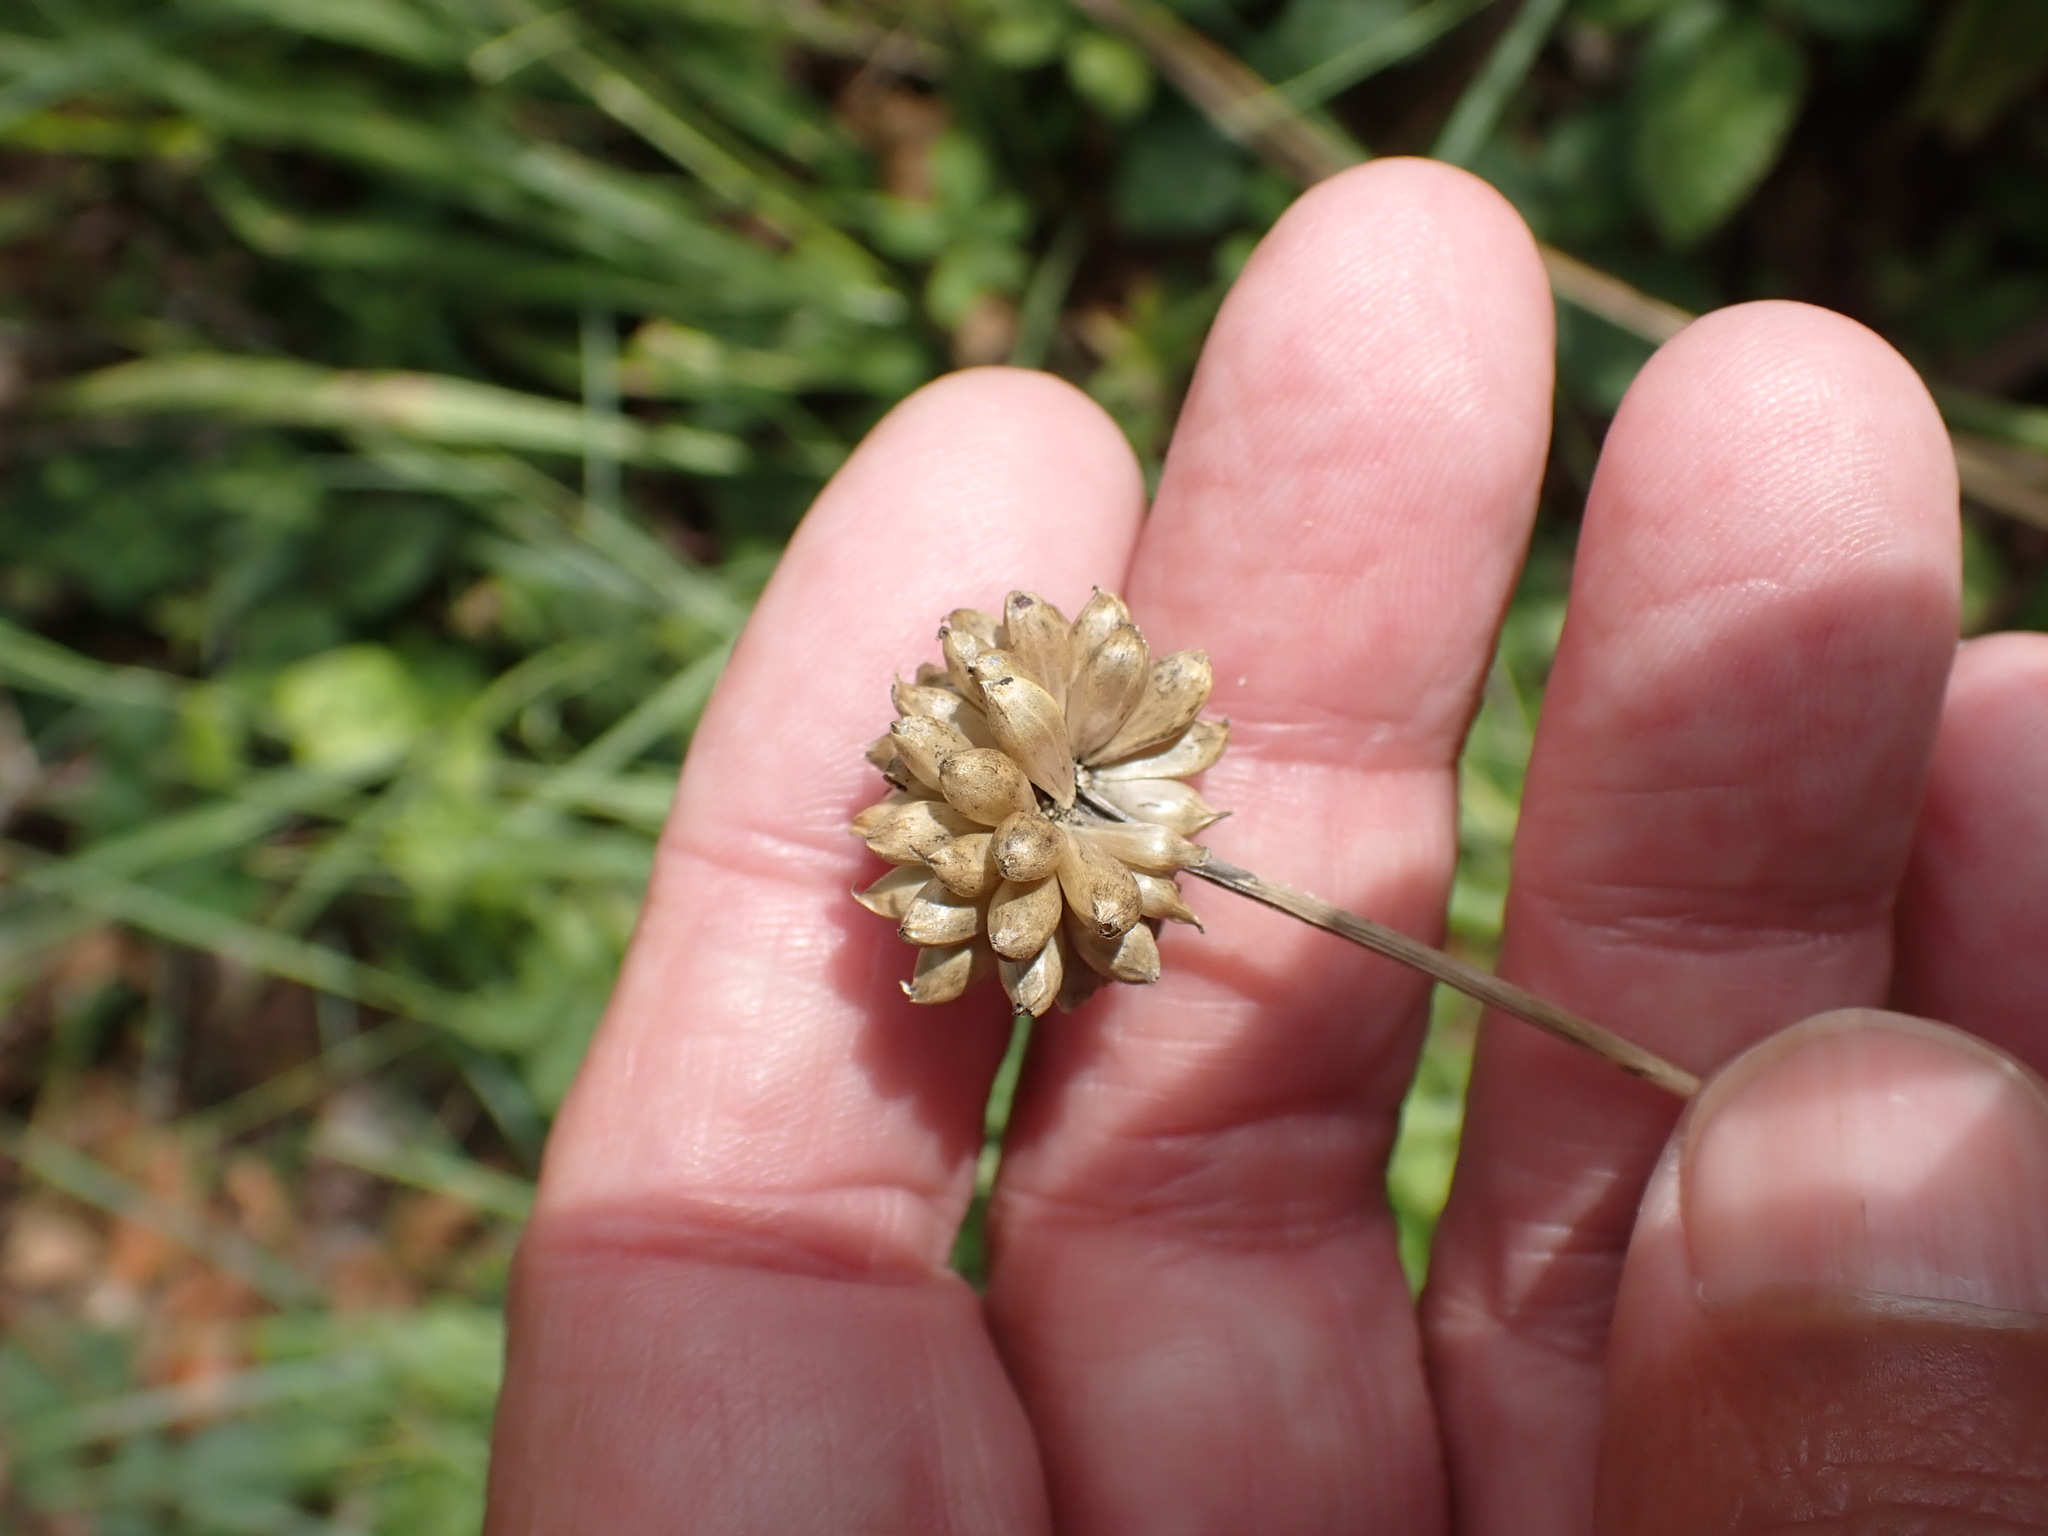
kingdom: Plantae
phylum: Tracheophyta
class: Liliopsida
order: Asparagales
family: Amaryllidaceae
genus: Allium
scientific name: Allium vineale
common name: Crow garlic
